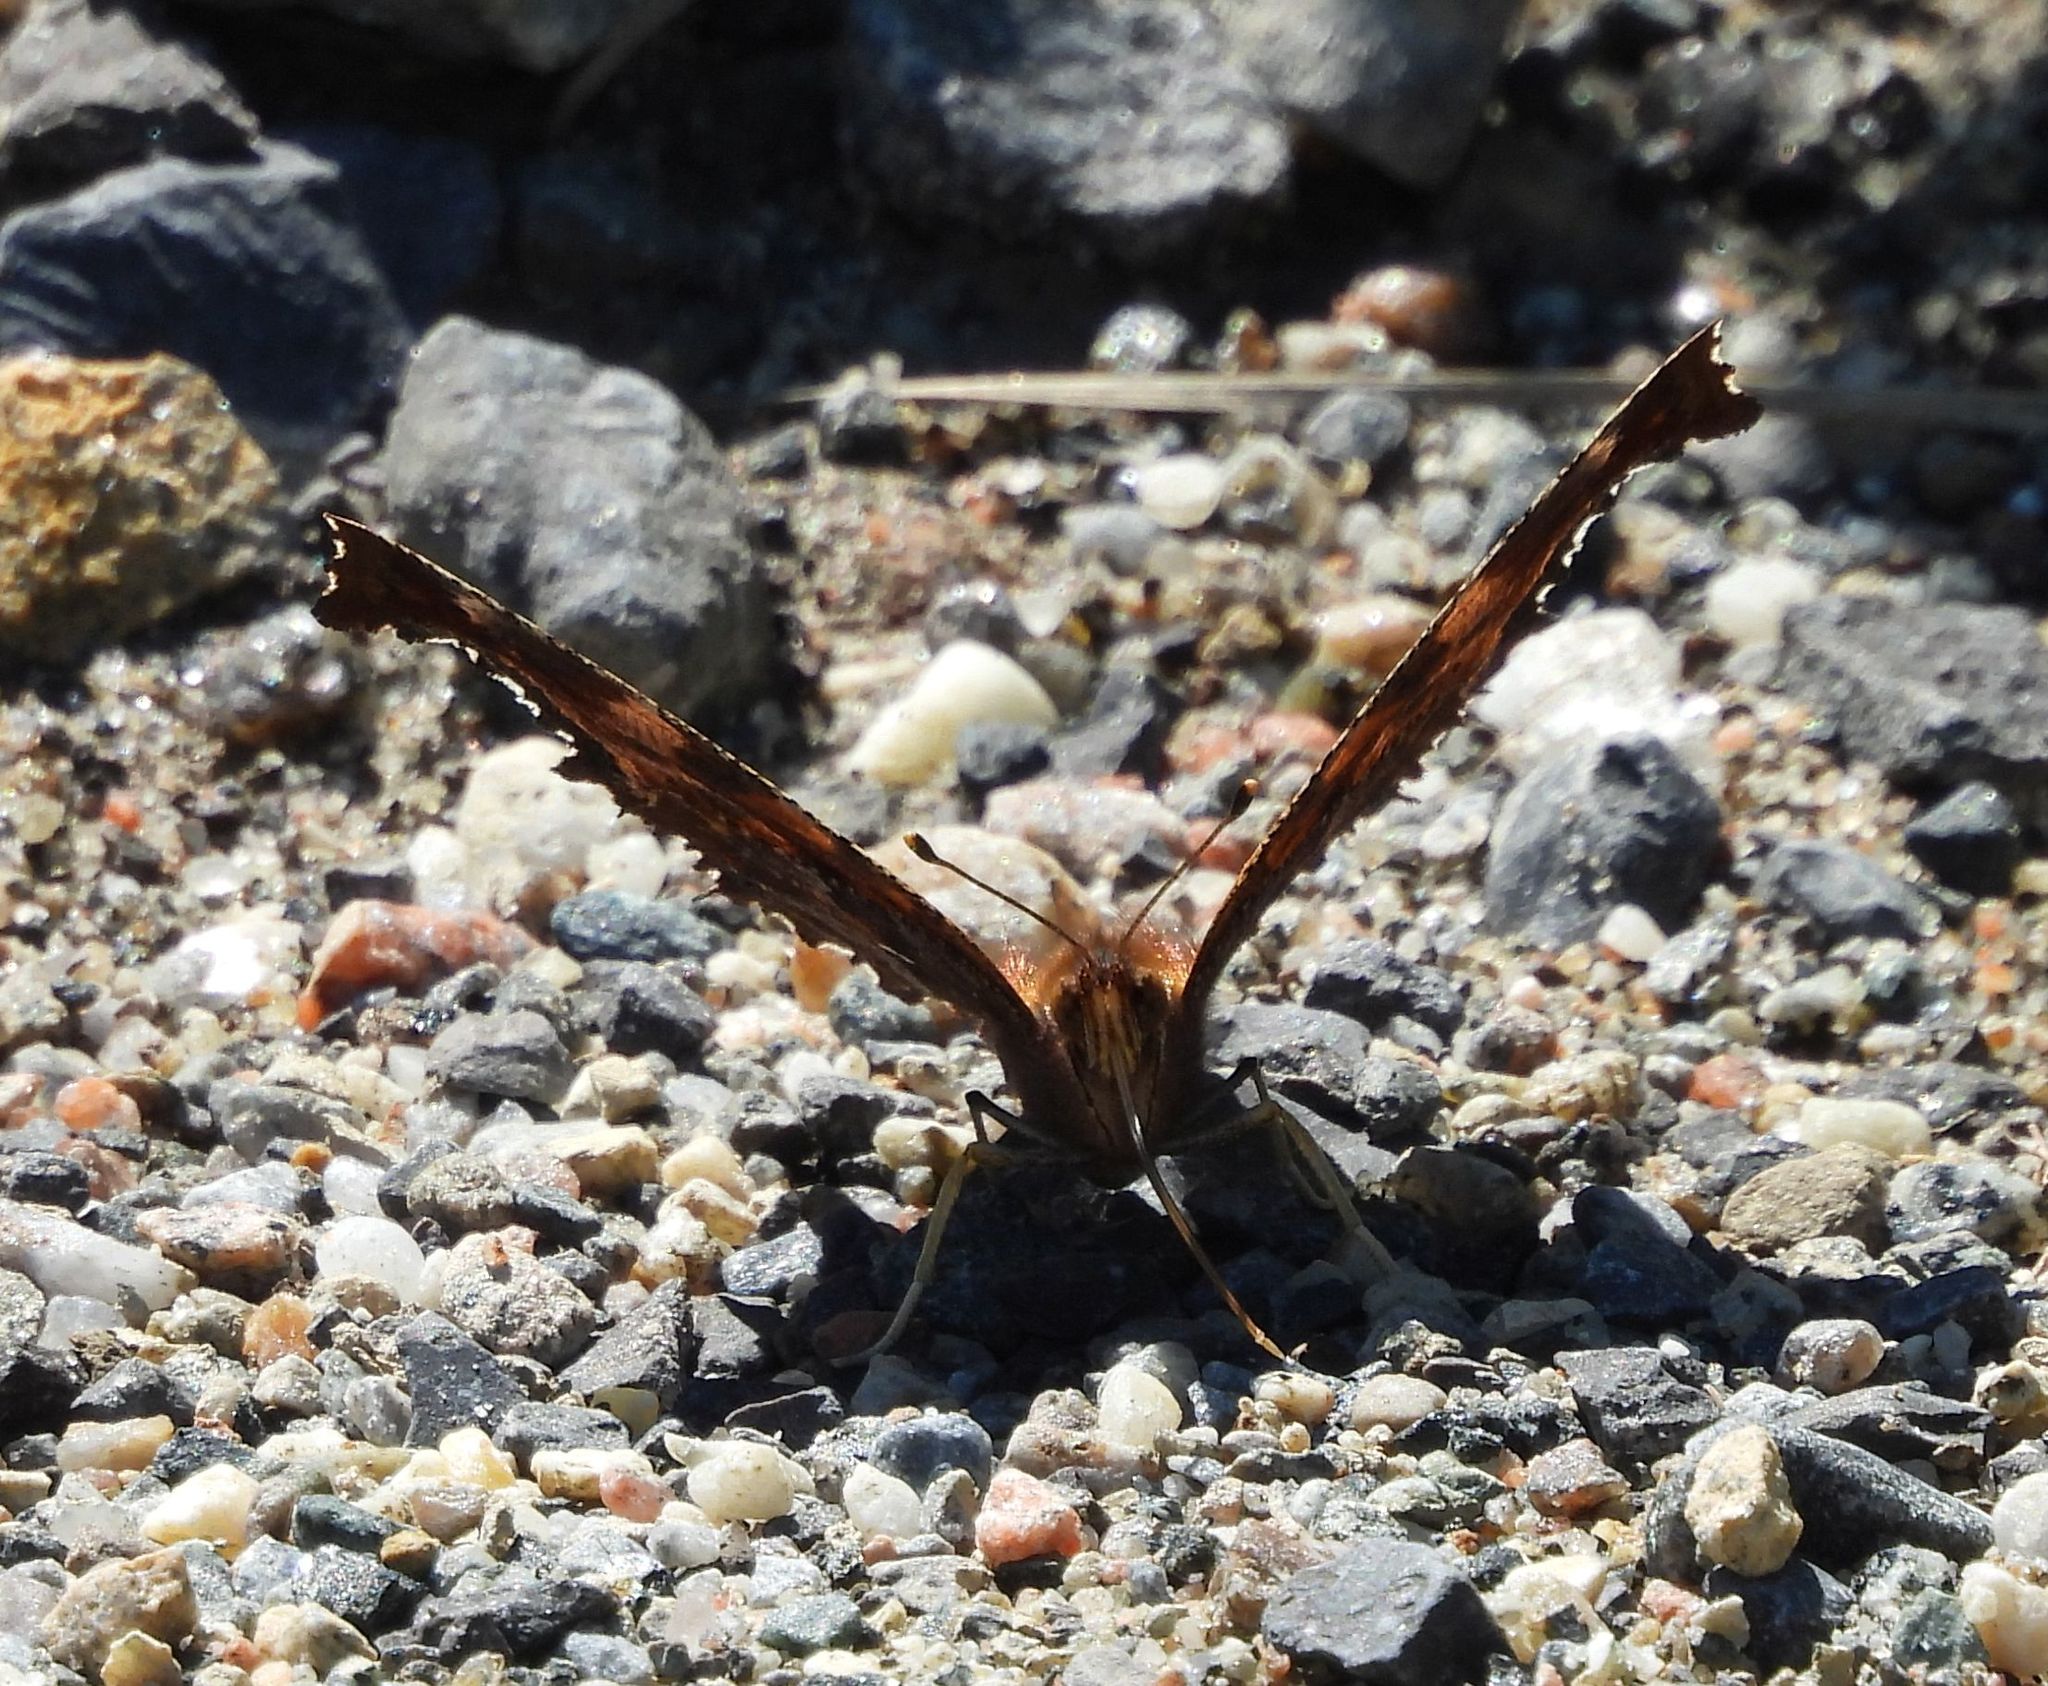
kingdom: Animalia
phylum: Arthropoda
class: Insecta
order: Lepidoptera
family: Nymphalidae
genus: Polygonia
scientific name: Polygonia comma
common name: Eastern comma
